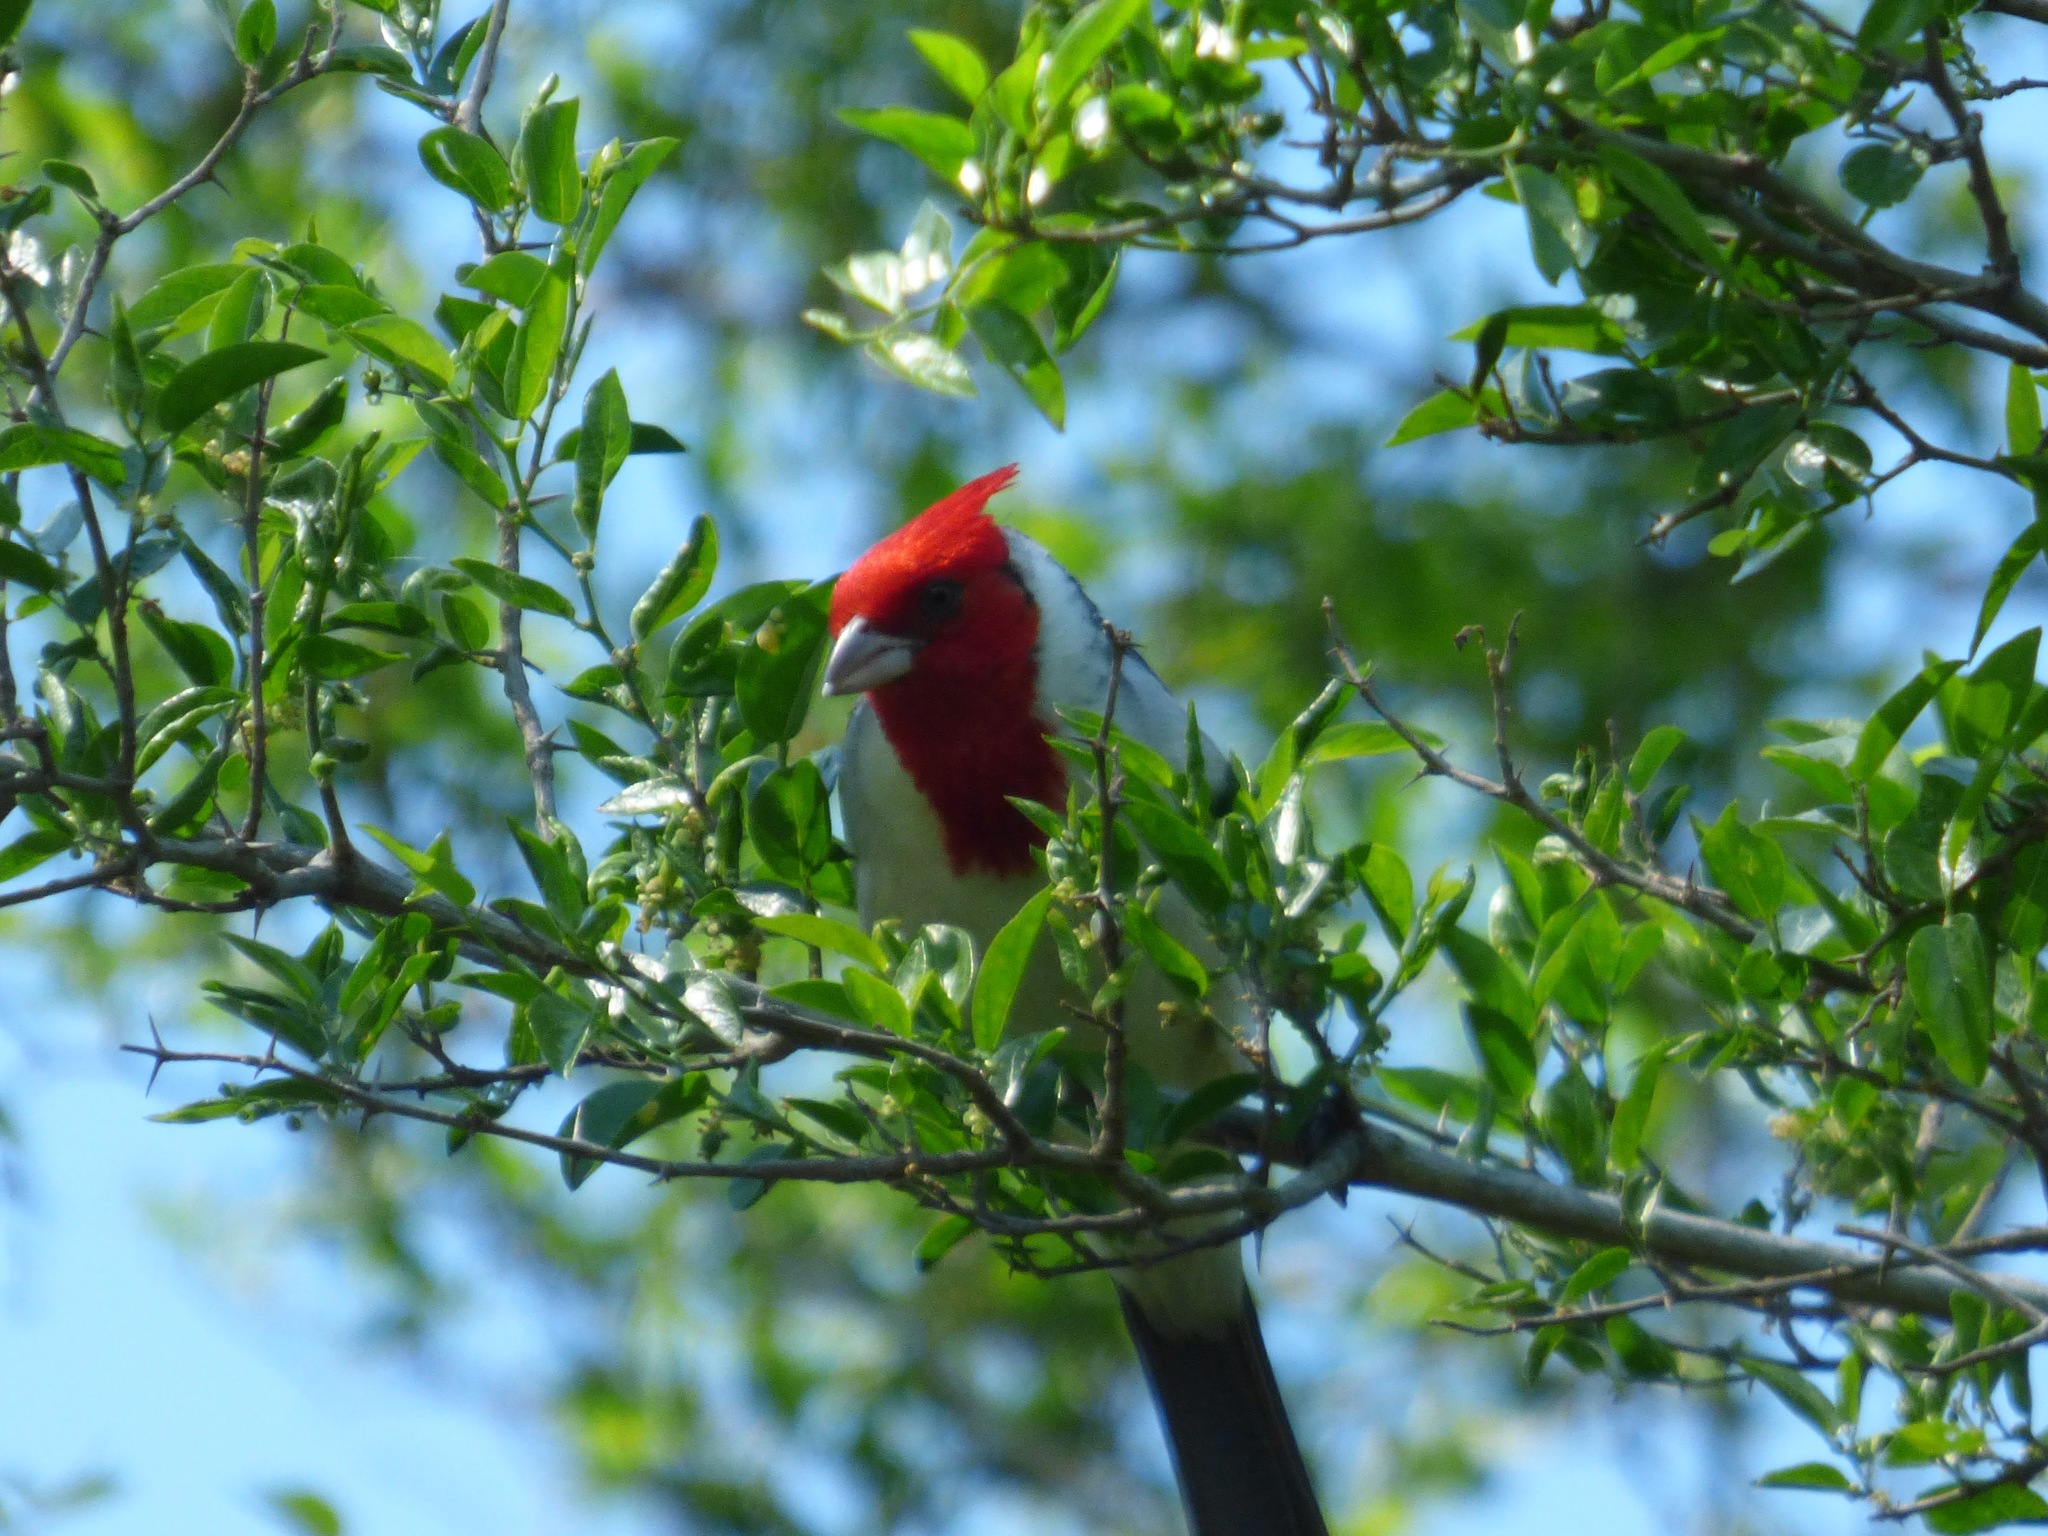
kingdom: Animalia
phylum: Chordata
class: Aves
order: Passeriformes
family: Thraupidae
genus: Paroaria
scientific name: Paroaria coronata
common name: Red-crested cardinal
